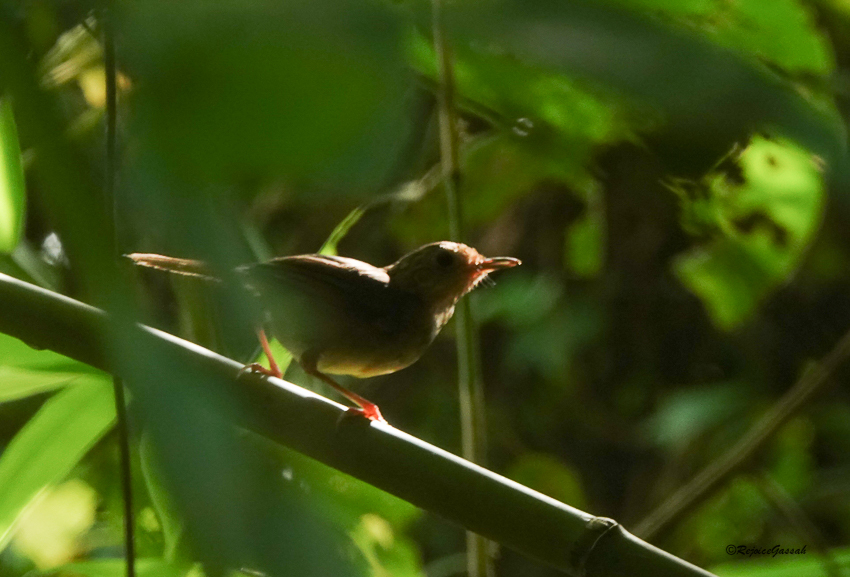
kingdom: Animalia
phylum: Chordata
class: Aves
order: Passeriformes
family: Pellorneidae
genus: Pellorneum
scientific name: Pellorneum tickelli
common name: Buff-breasted babbler
